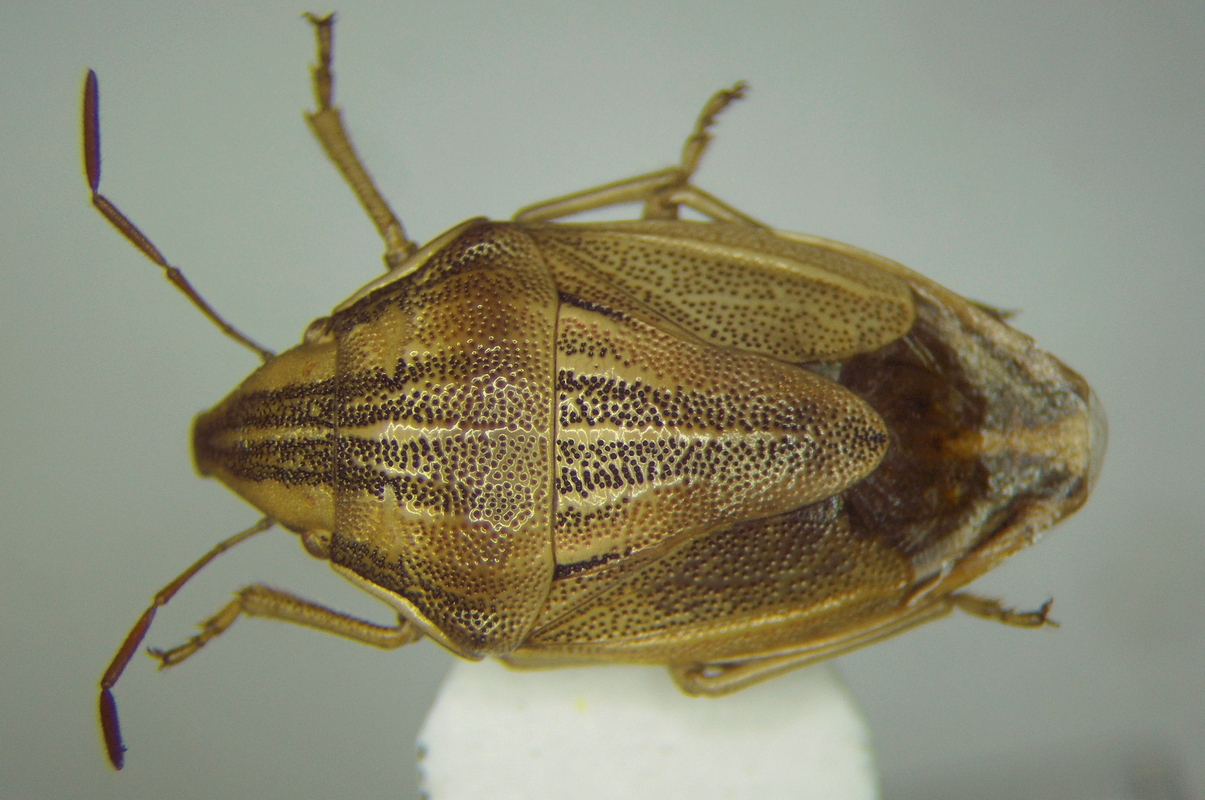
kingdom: Animalia
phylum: Arthropoda
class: Insecta
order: Hemiptera
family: Pentatomidae
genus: Aelia
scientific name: Aelia acuminata
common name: Bishop's mitre
